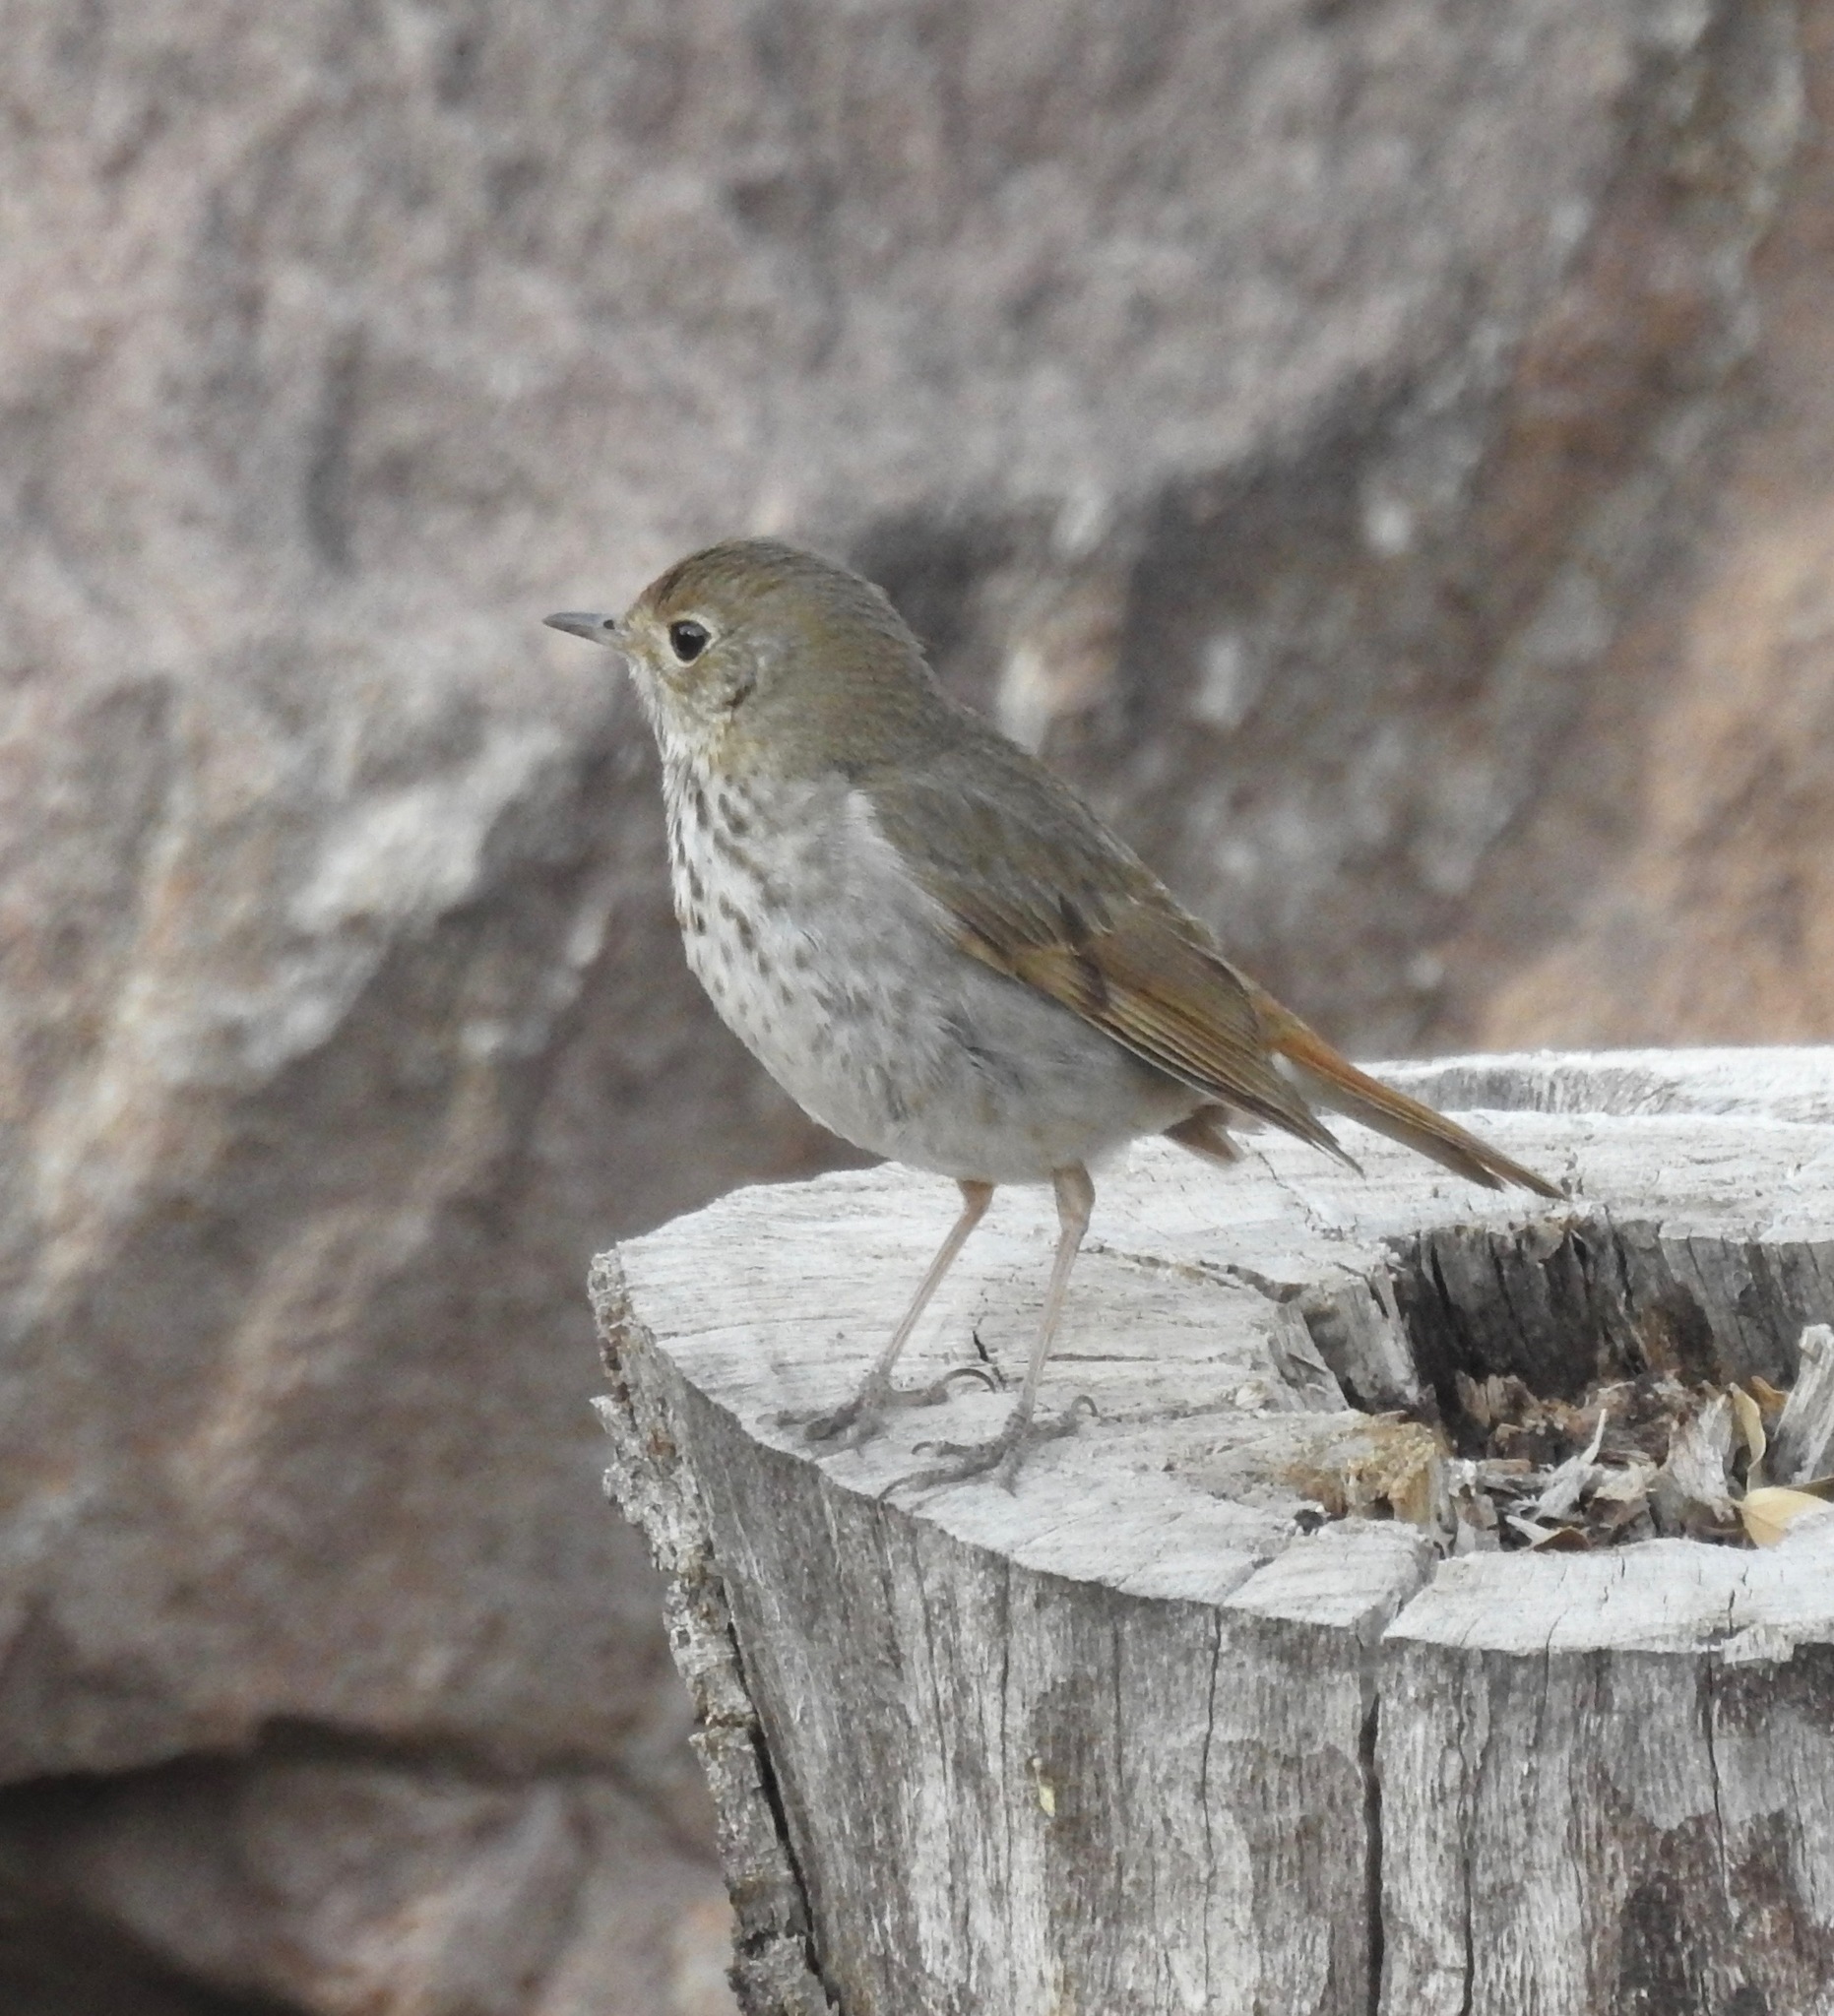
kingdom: Animalia
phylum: Chordata
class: Aves
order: Passeriformes
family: Turdidae
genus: Catharus
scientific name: Catharus guttatus
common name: Hermit thrush
